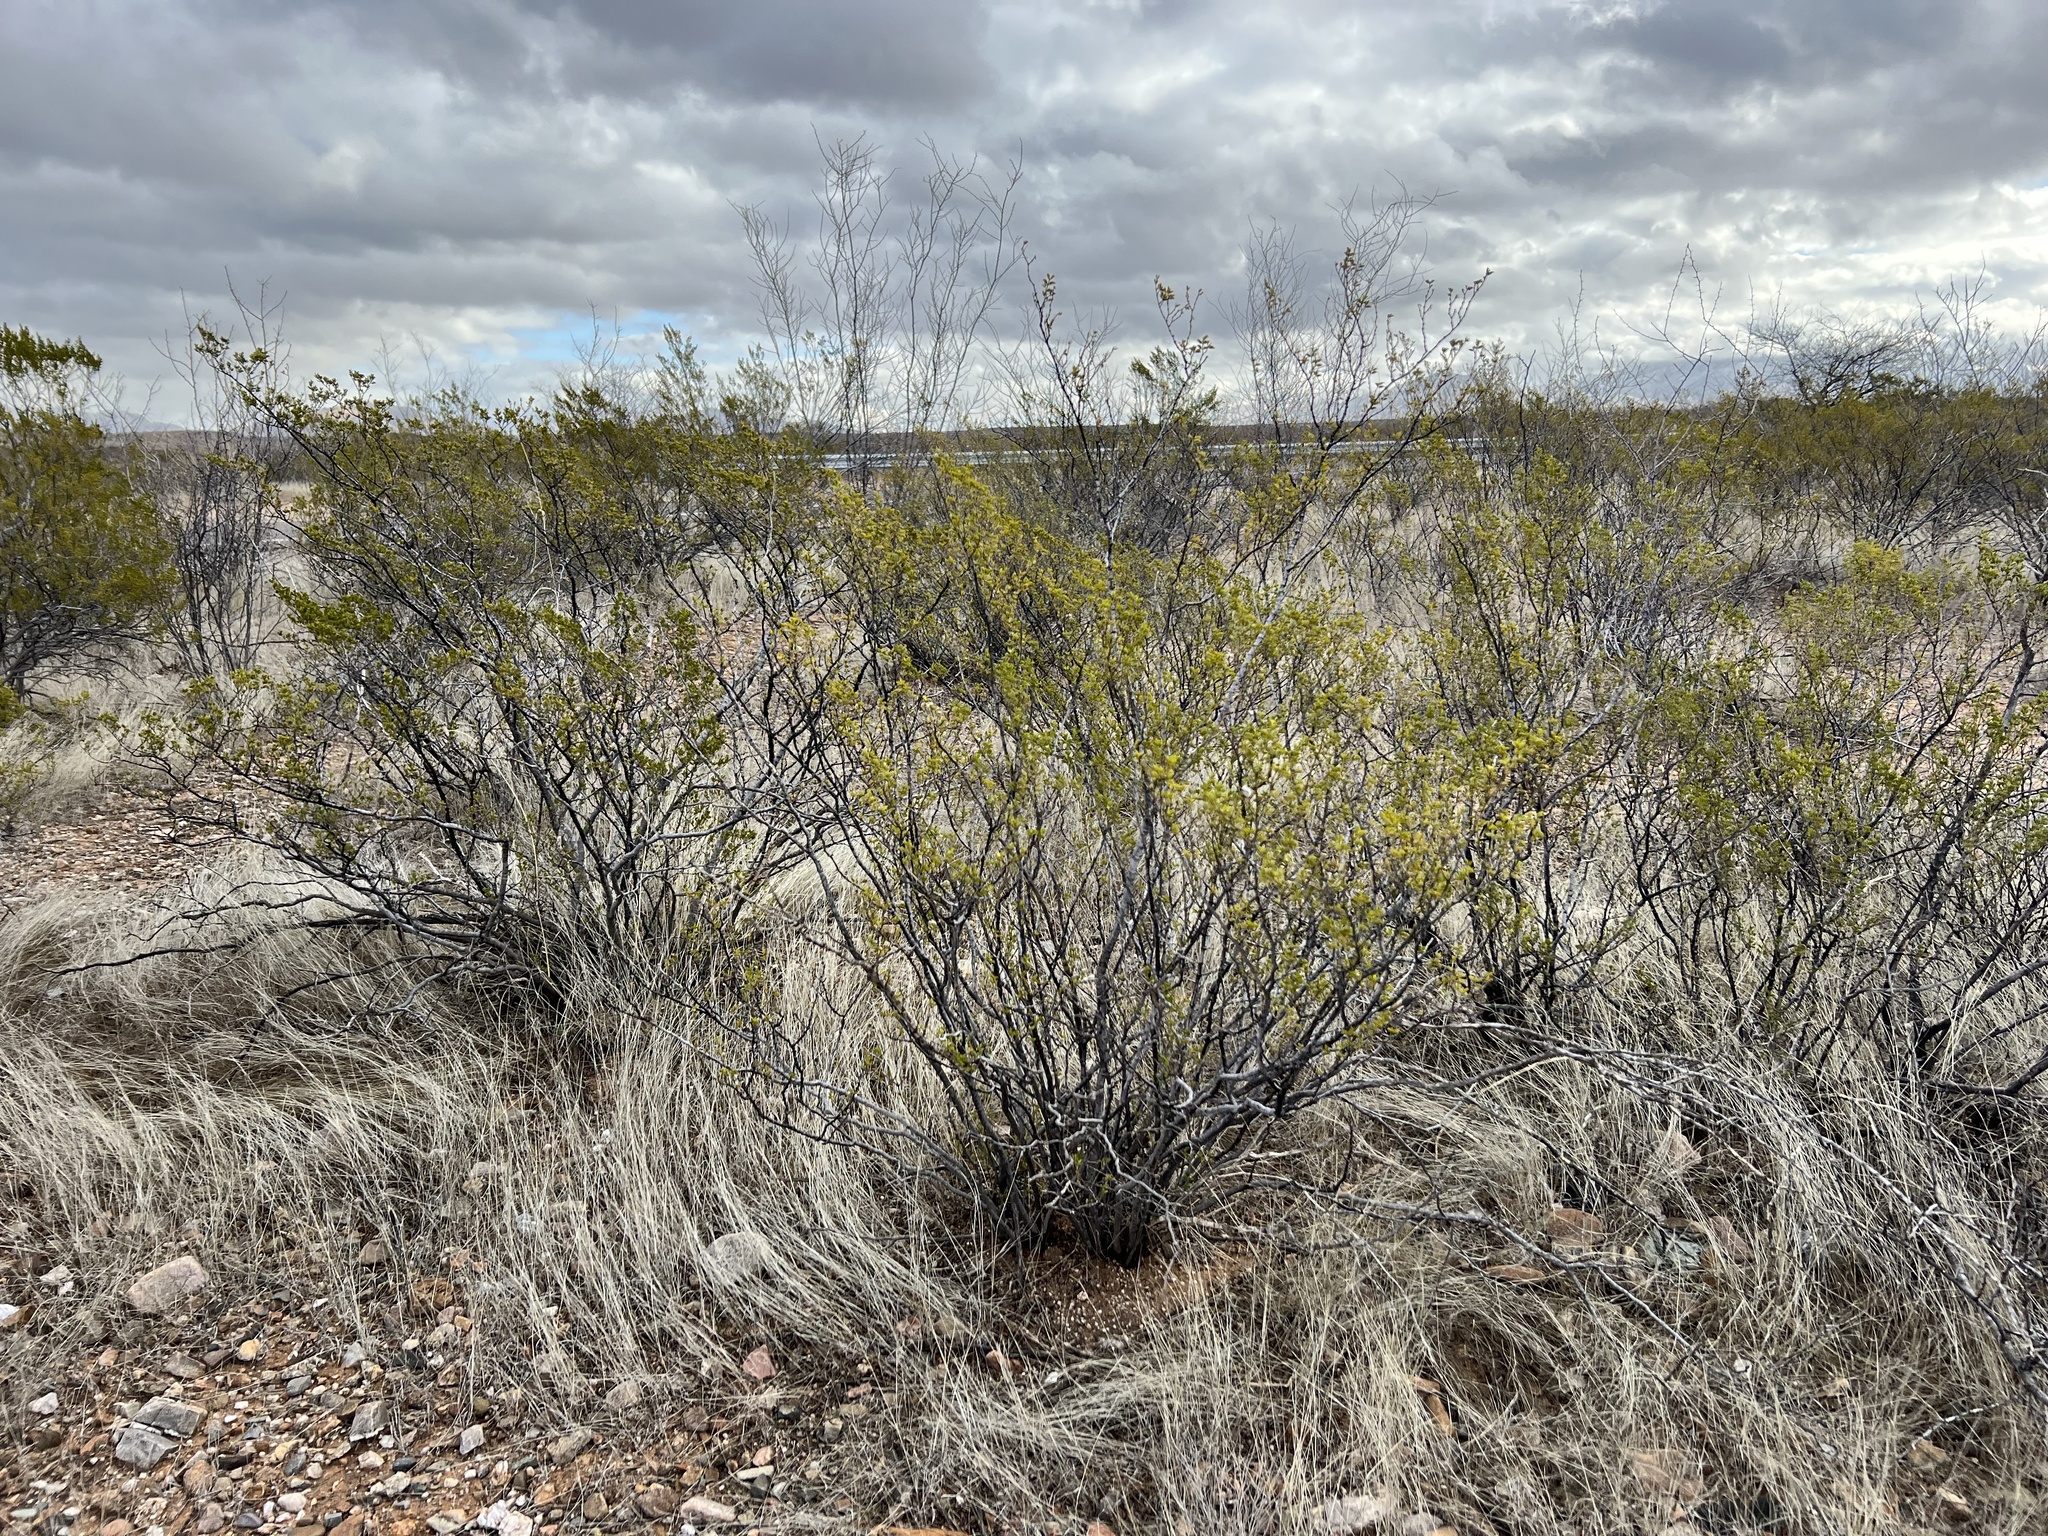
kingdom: Plantae
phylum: Tracheophyta
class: Magnoliopsida
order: Zygophyllales
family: Zygophyllaceae
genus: Larrea
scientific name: Larrea tridentata
